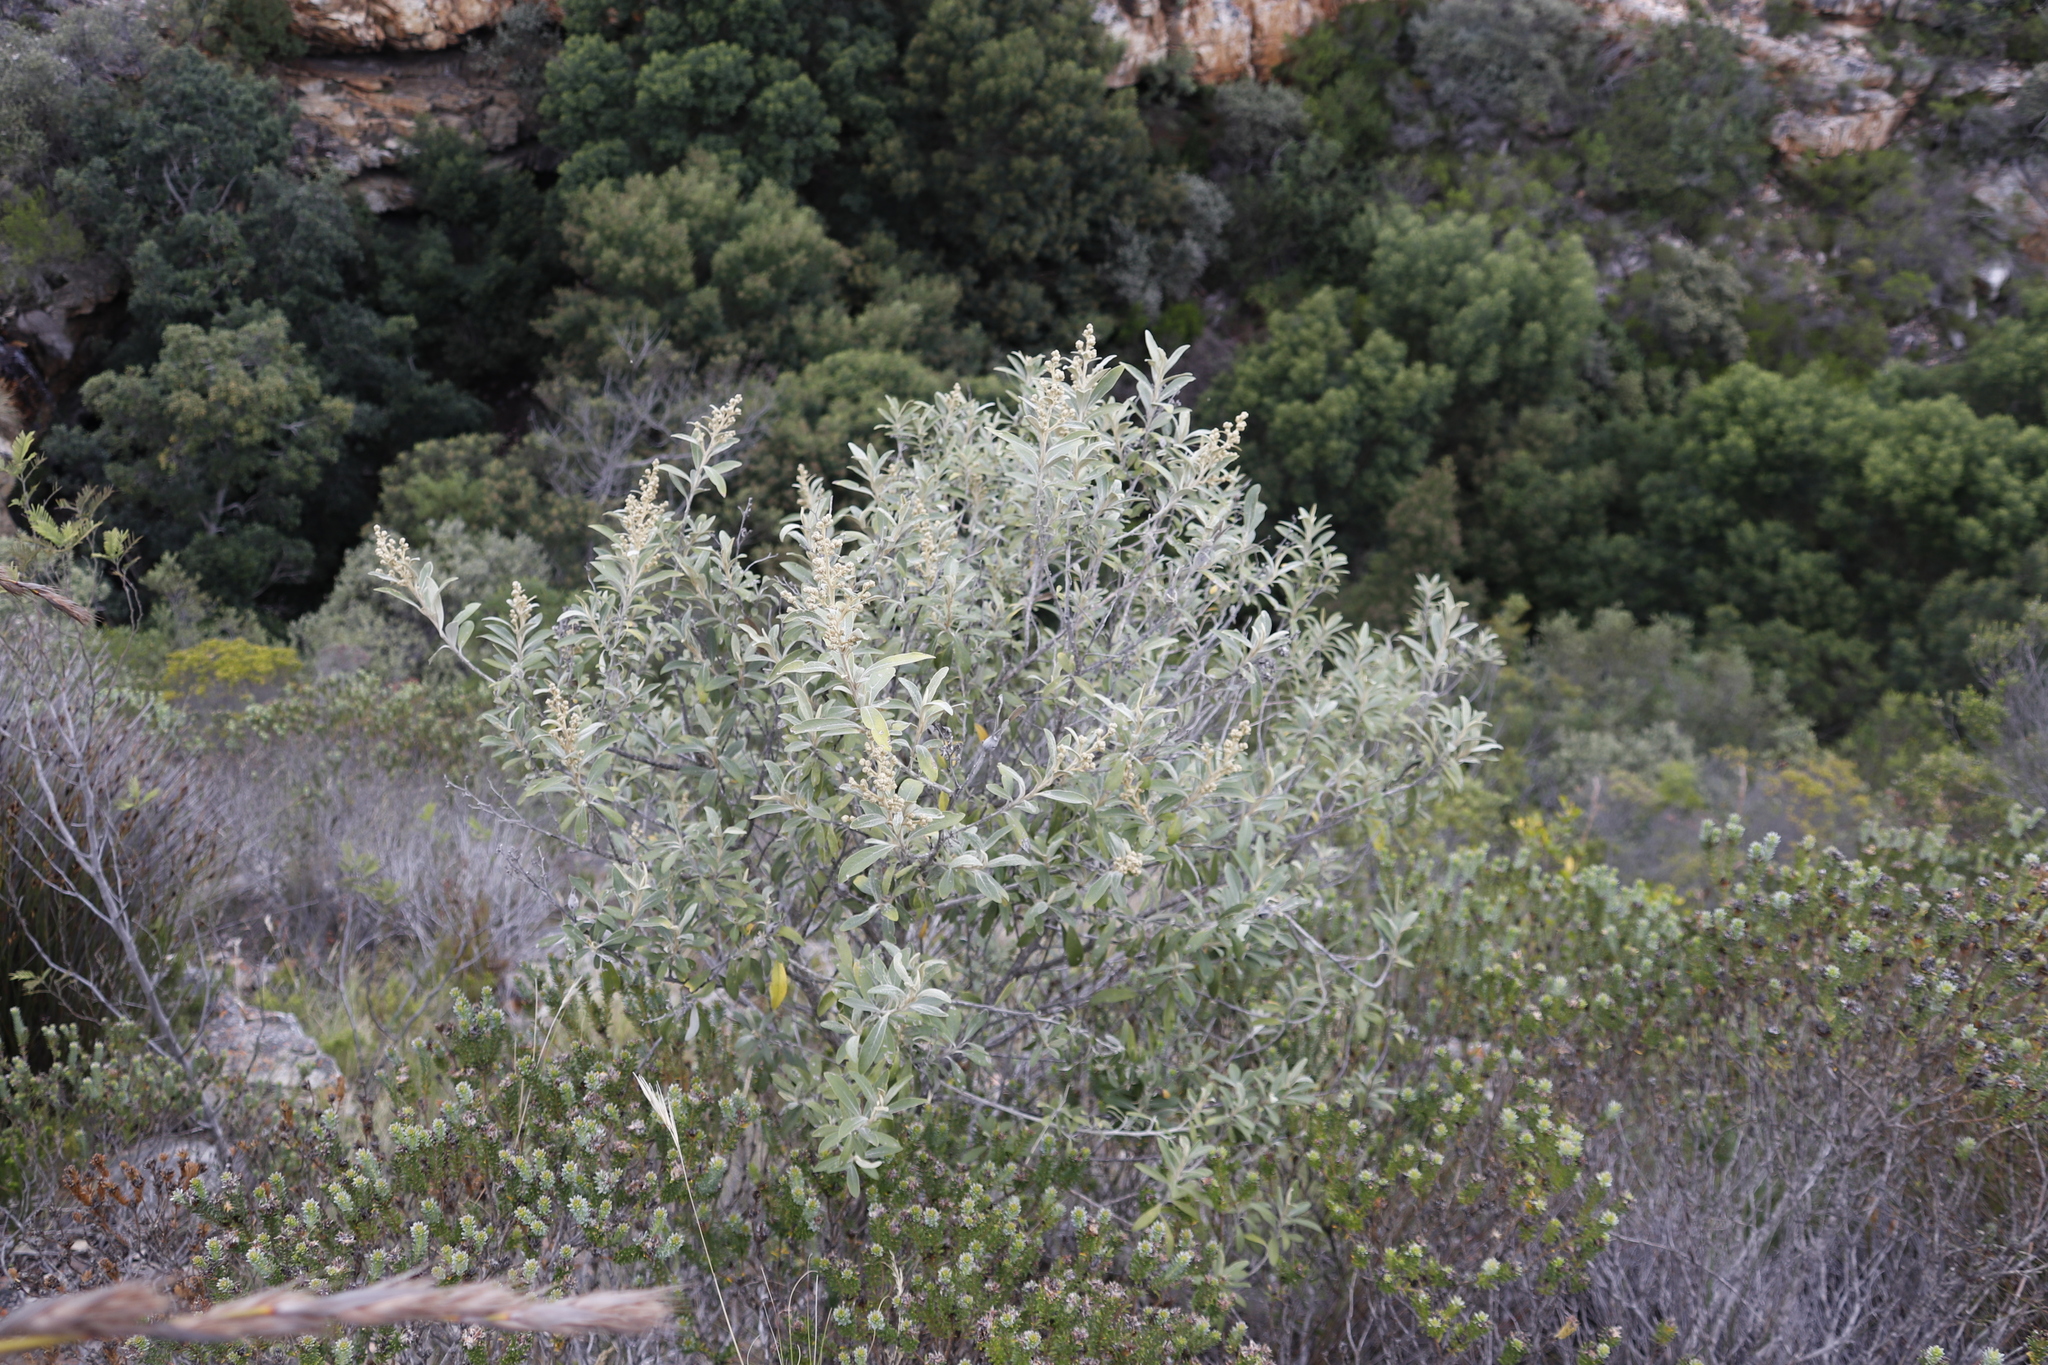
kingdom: Plantae
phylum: Tracheophyta
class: Magnoliopsida
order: Asterales
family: Asteraceae
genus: Tarchonanthus
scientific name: Tarchonanthus littoralis
